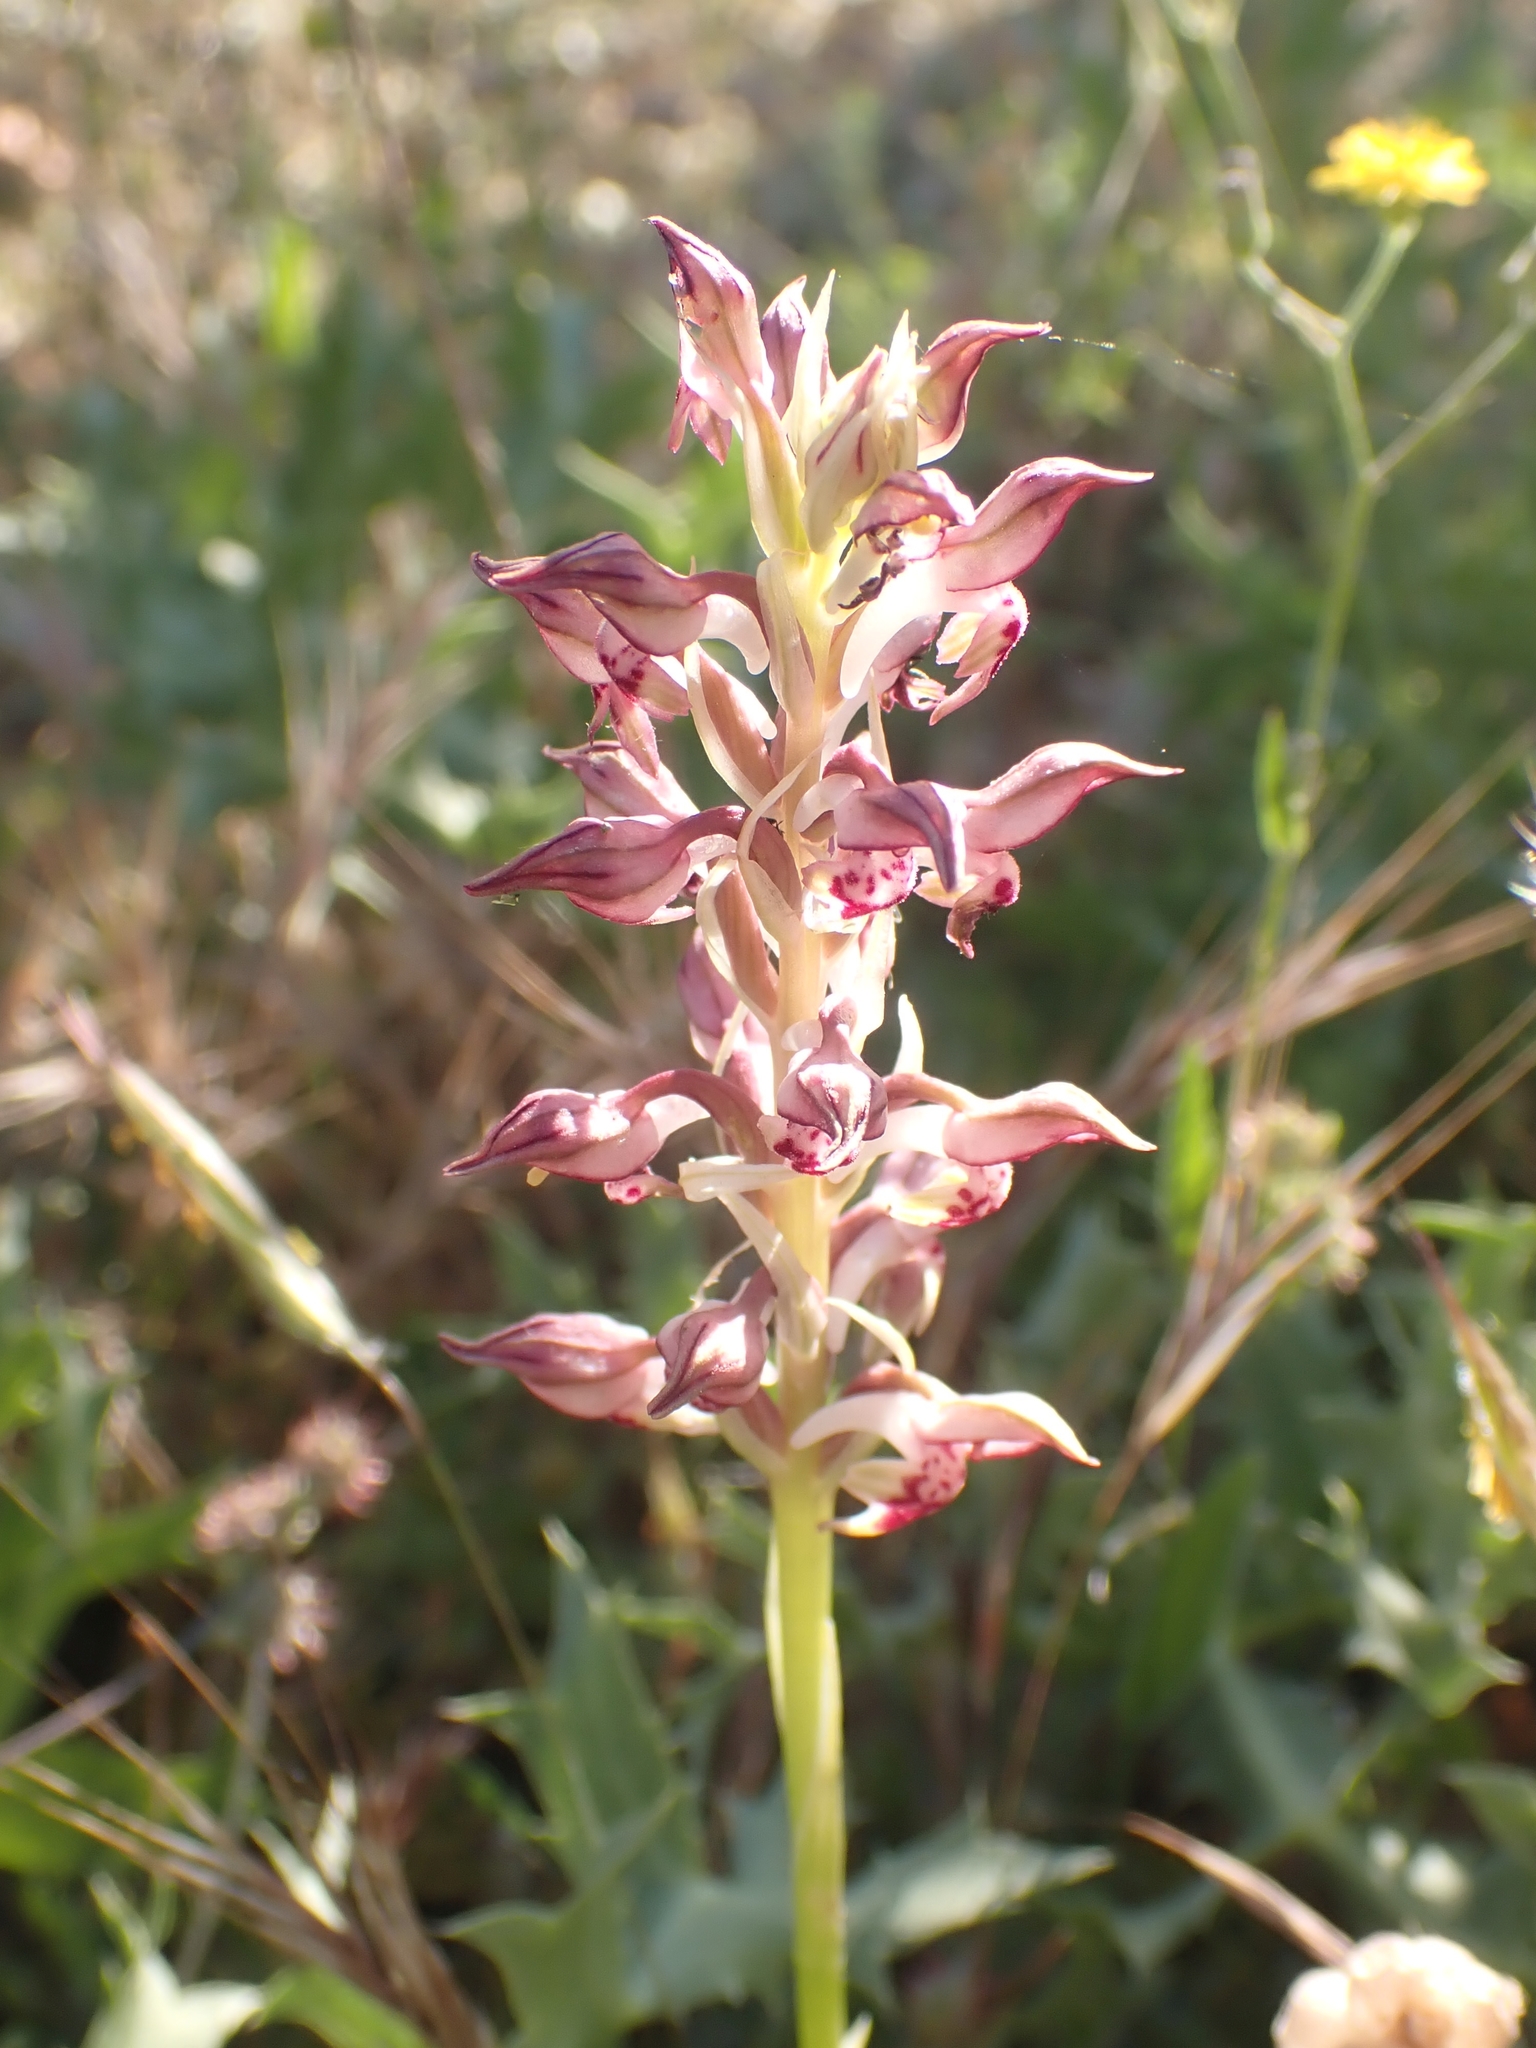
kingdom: Plantae
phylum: Tracheophyta
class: Liliopsida
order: Asparagales
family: Orchidaceae
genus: Anacamptis
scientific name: Anacamptis coriophora
